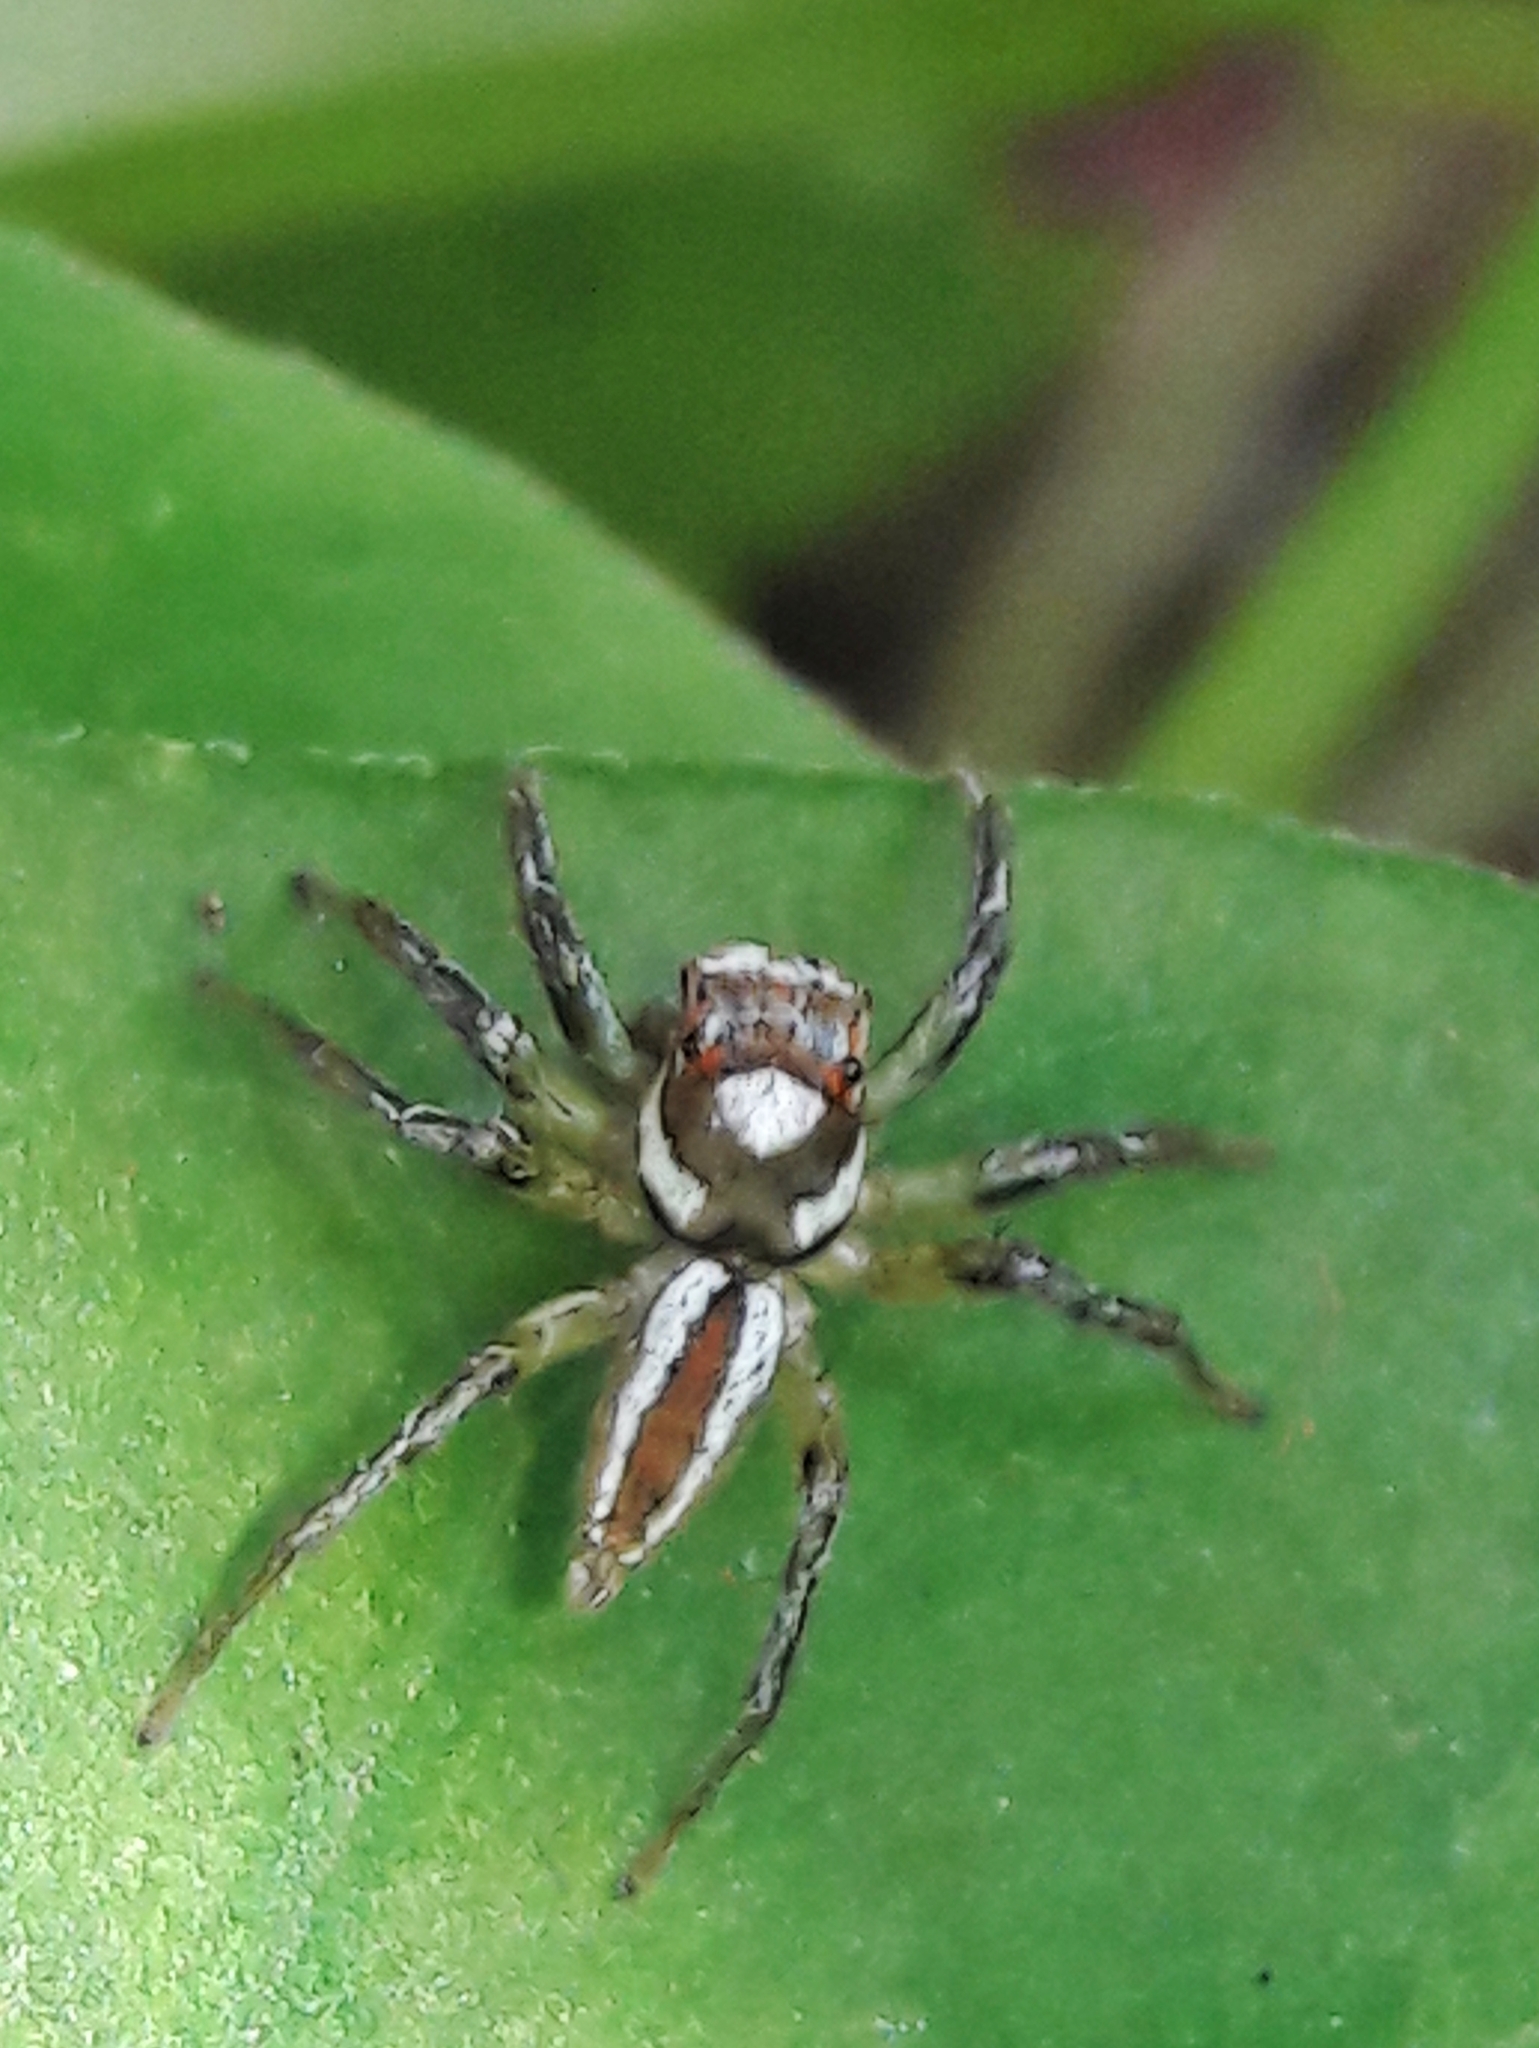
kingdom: Animalia
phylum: Arthropoda
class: Arachnida
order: Araneae
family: Salticidae
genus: Chira
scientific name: Chira simoni
